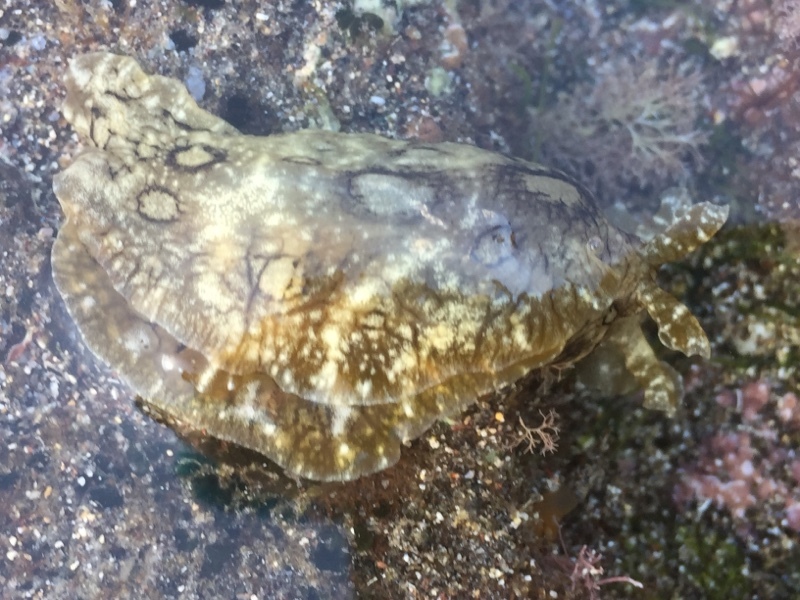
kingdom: Animalia
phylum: Mollusca
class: Gastropoda
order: Aplysiida
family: Aplysiidae
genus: Aplysia
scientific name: Aplysia dactylomela
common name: Large-spotted sea hare
